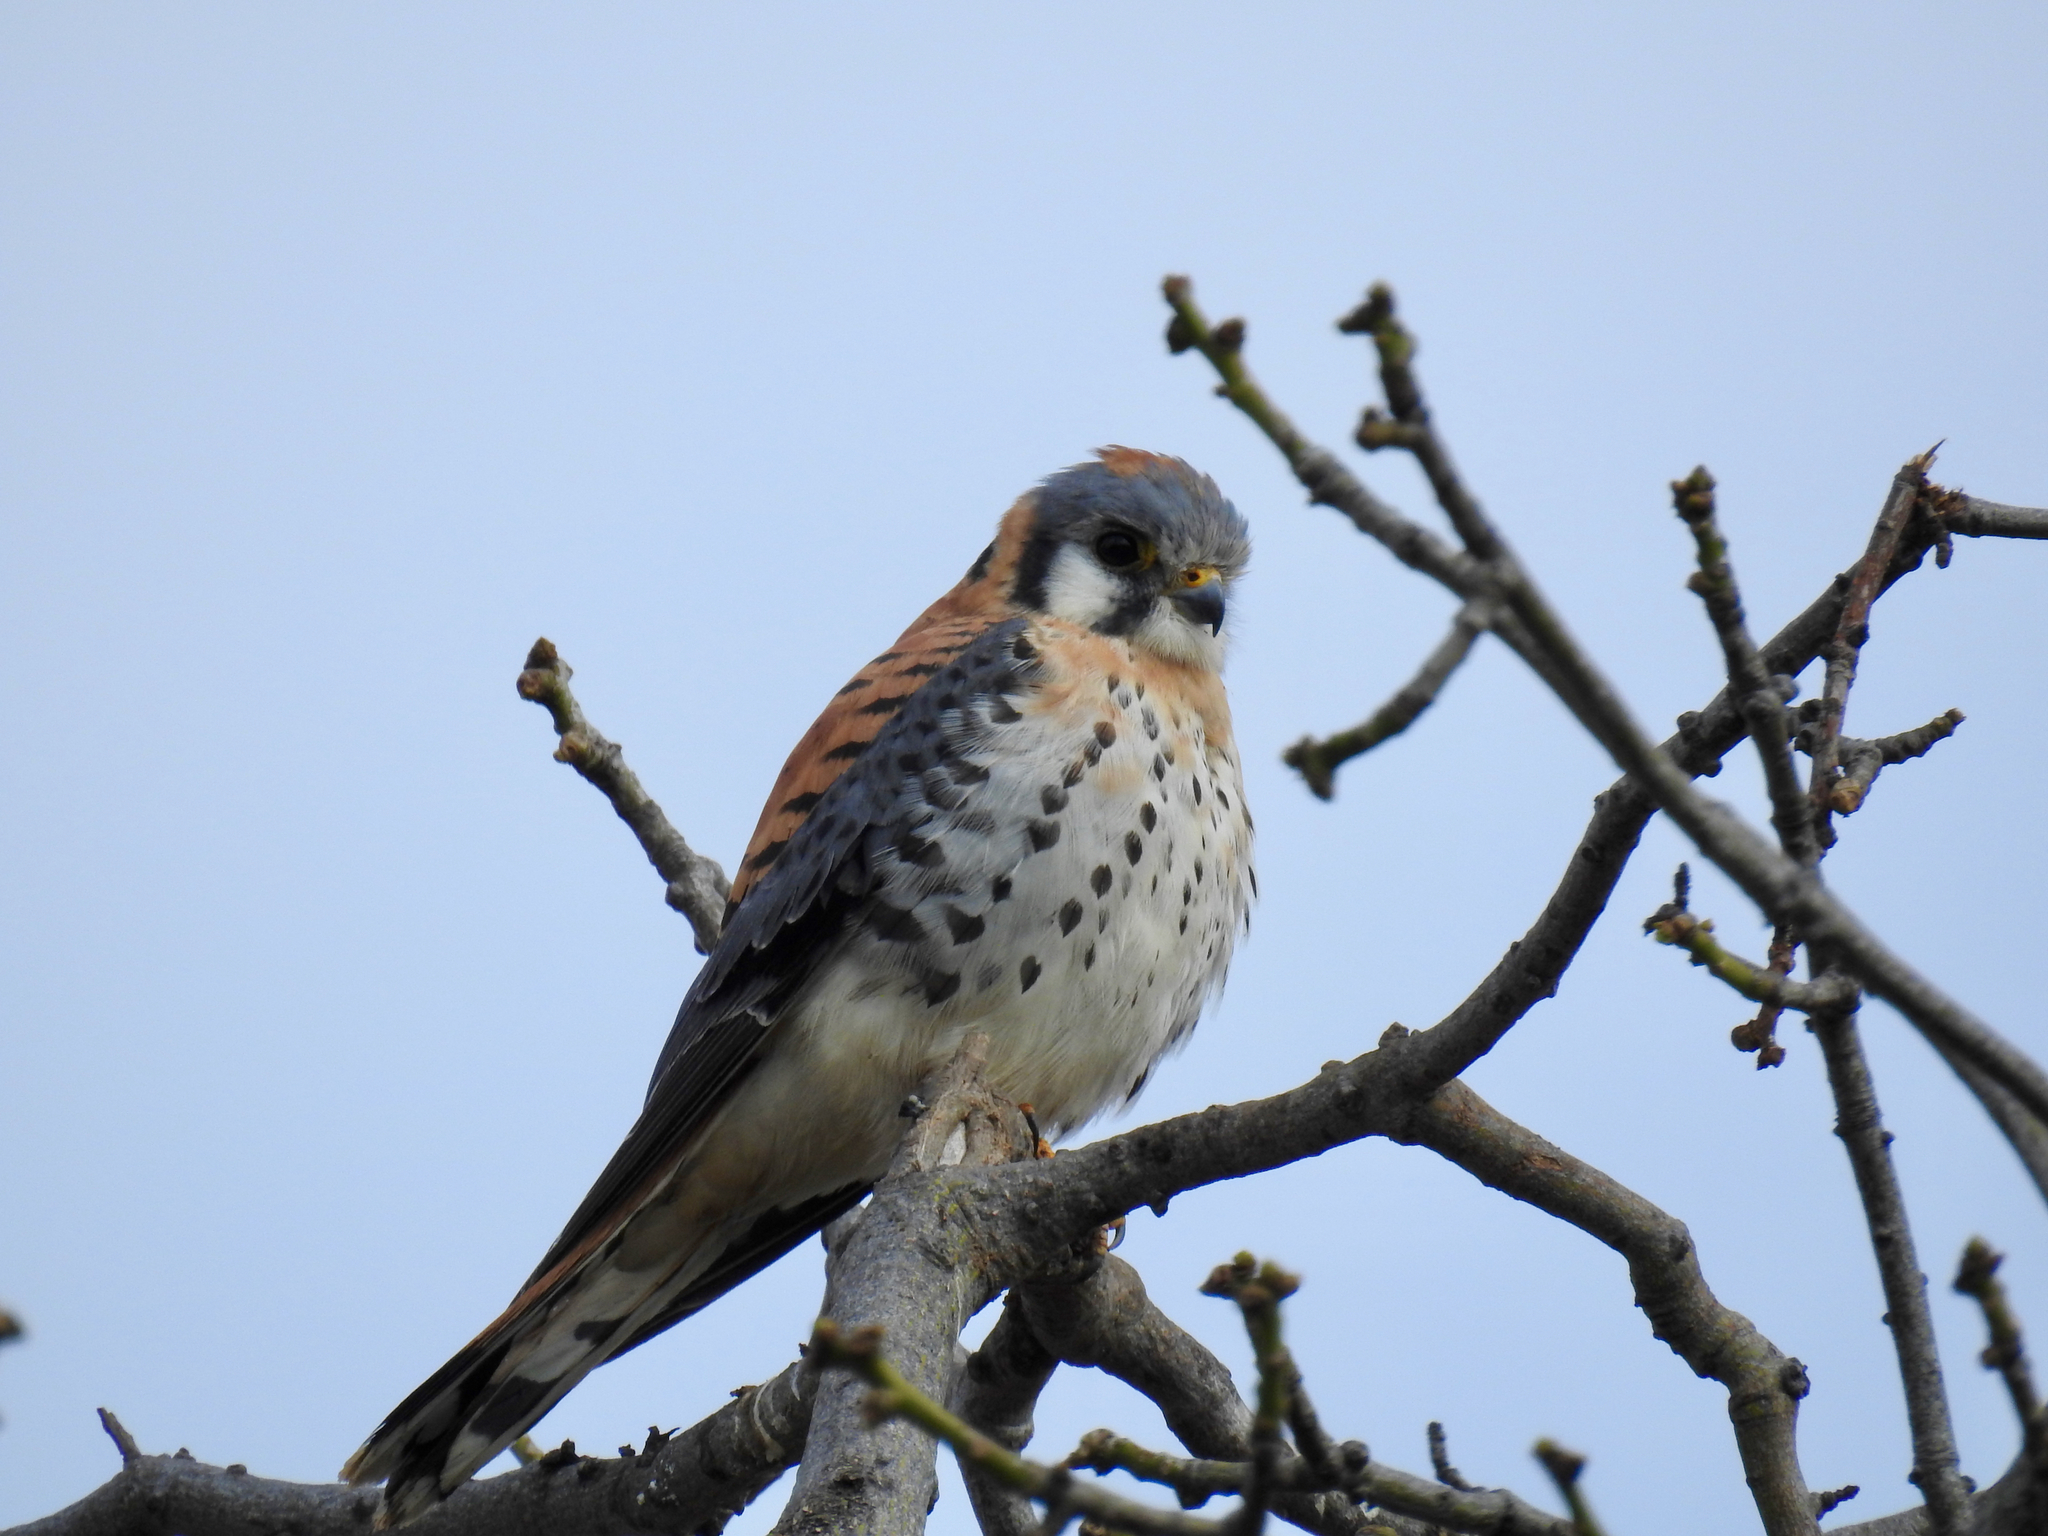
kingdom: Animalia
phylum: Chordata
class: Aves
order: Falconiformes
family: Falconidae
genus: Falco
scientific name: Falco sparverius
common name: American kestrel
